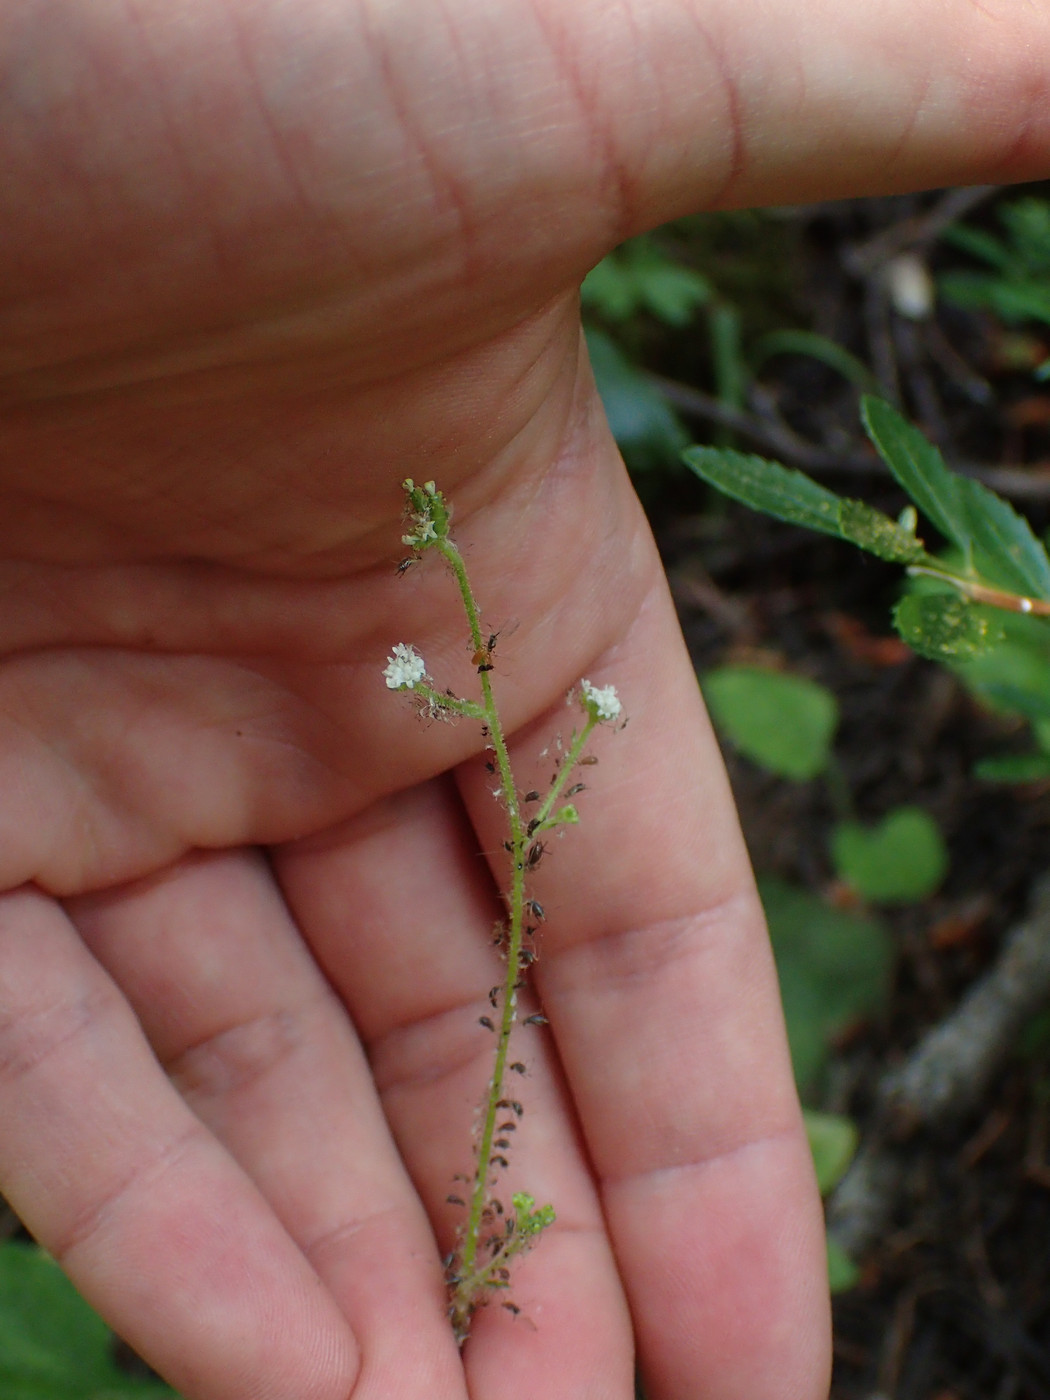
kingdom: Plantae
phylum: Tracheophyta
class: Magnoliopsida
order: Asterales
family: Asteraceae
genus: Adenocaulon
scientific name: Adenocaulon bicolor
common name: Trailplant
